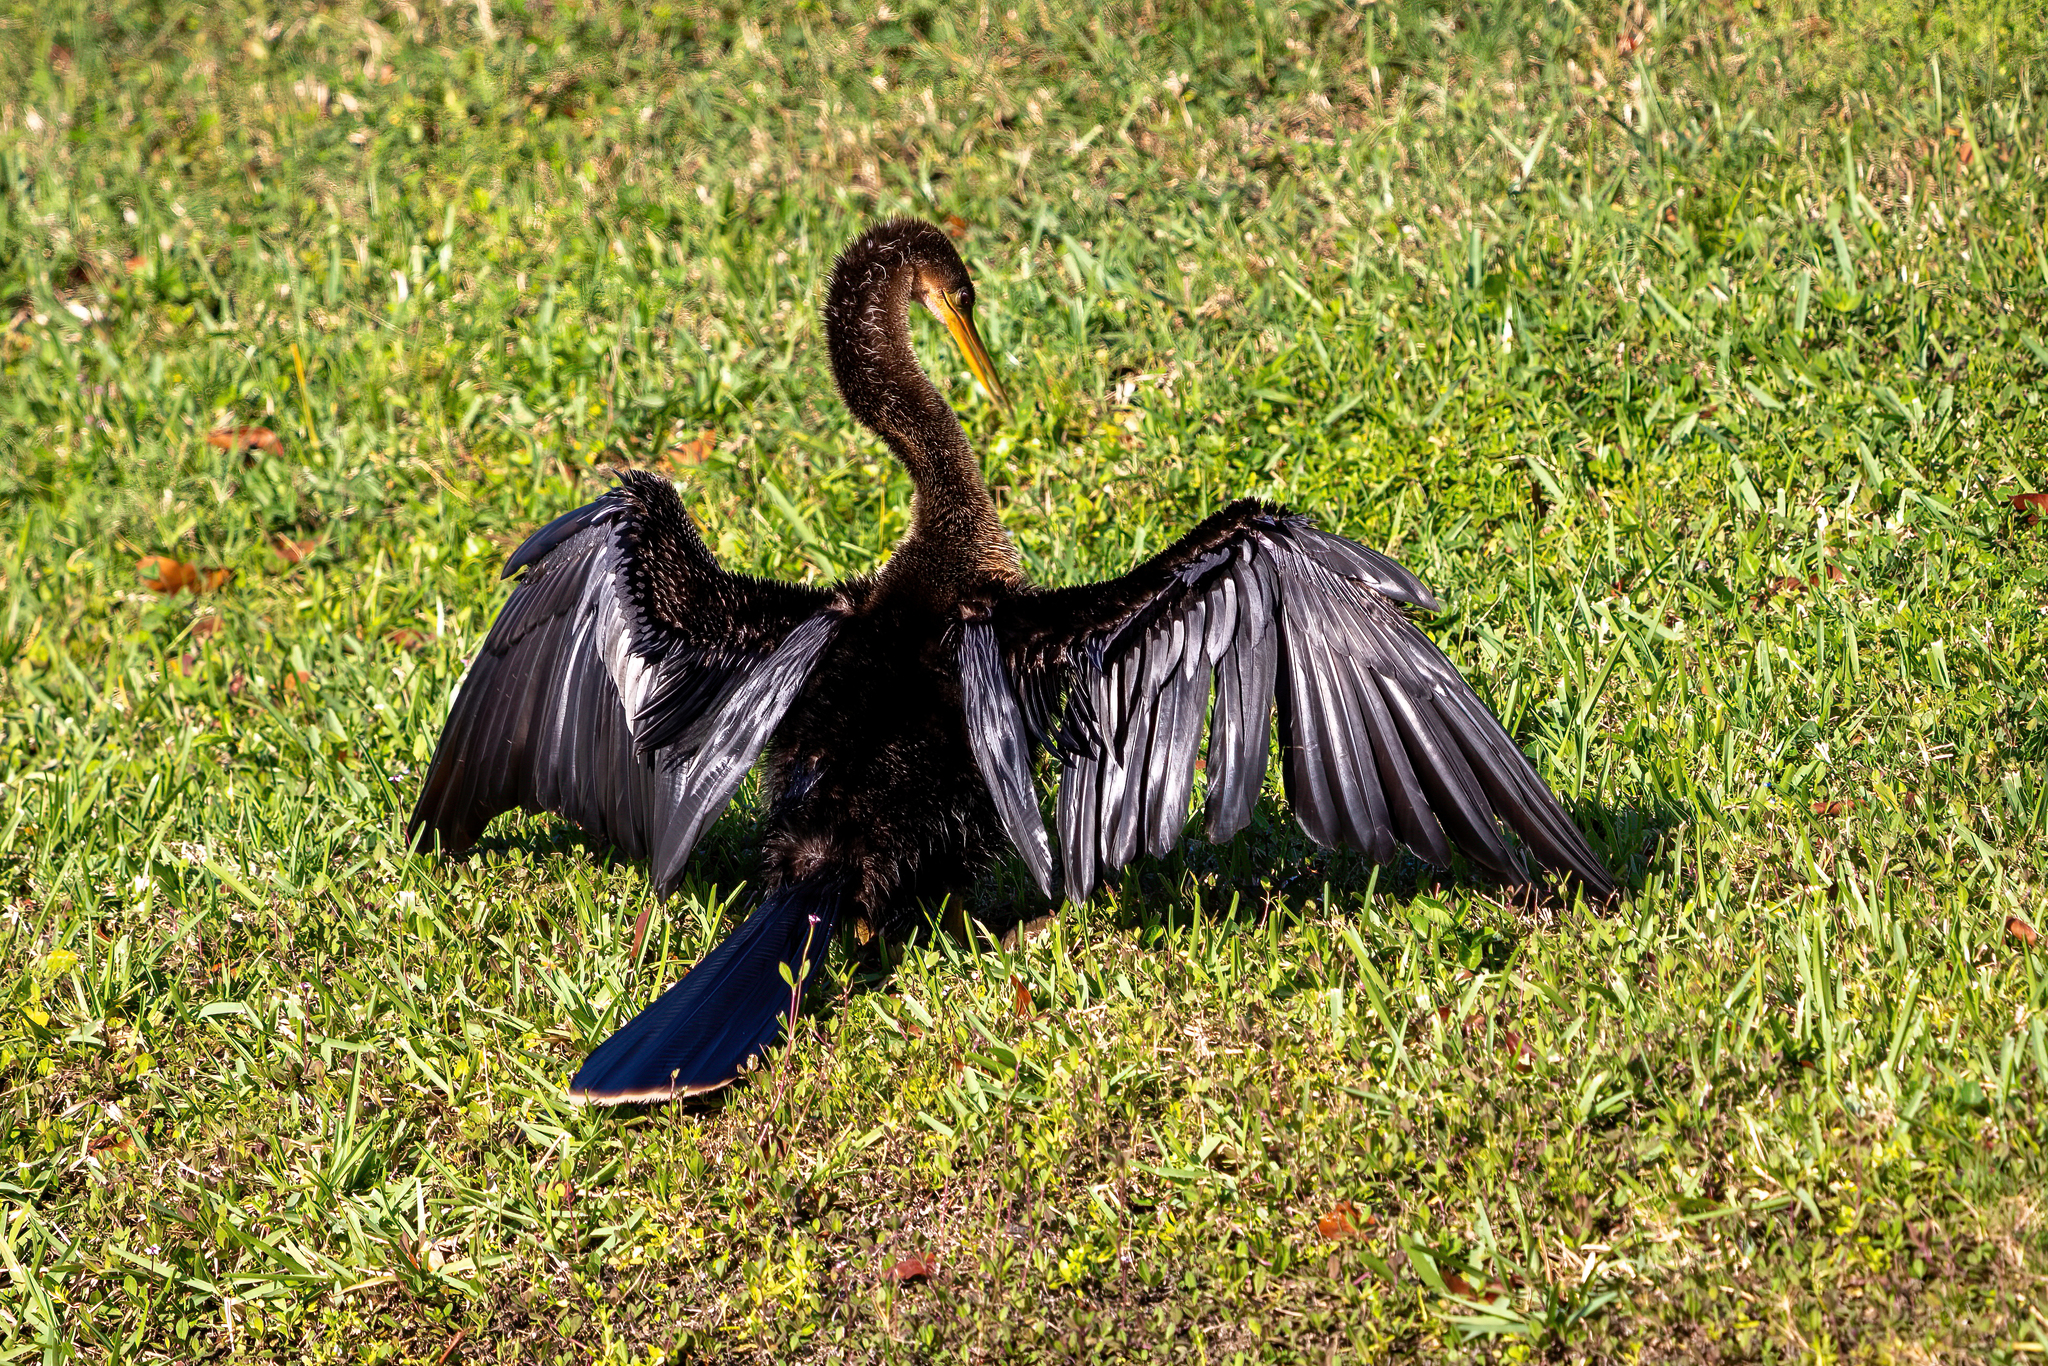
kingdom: Animalia
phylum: Chordata
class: Aves
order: Suliformes
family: Anhingidae
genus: Anhinga
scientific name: Anhinga anhinga
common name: Anhinga
